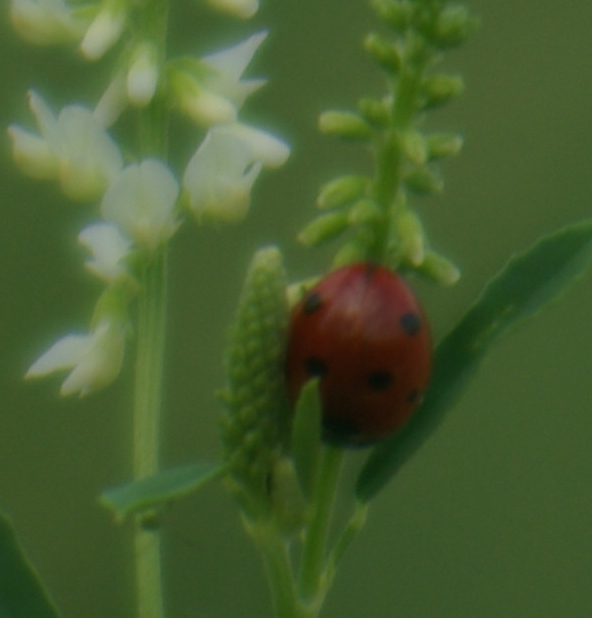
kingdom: Animalia
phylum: Arthropoda
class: Insecta
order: Coleoptera
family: Coccinellidae
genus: Coccinella
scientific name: Coccinella septempunctata
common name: Sevenspotted lady beetle
